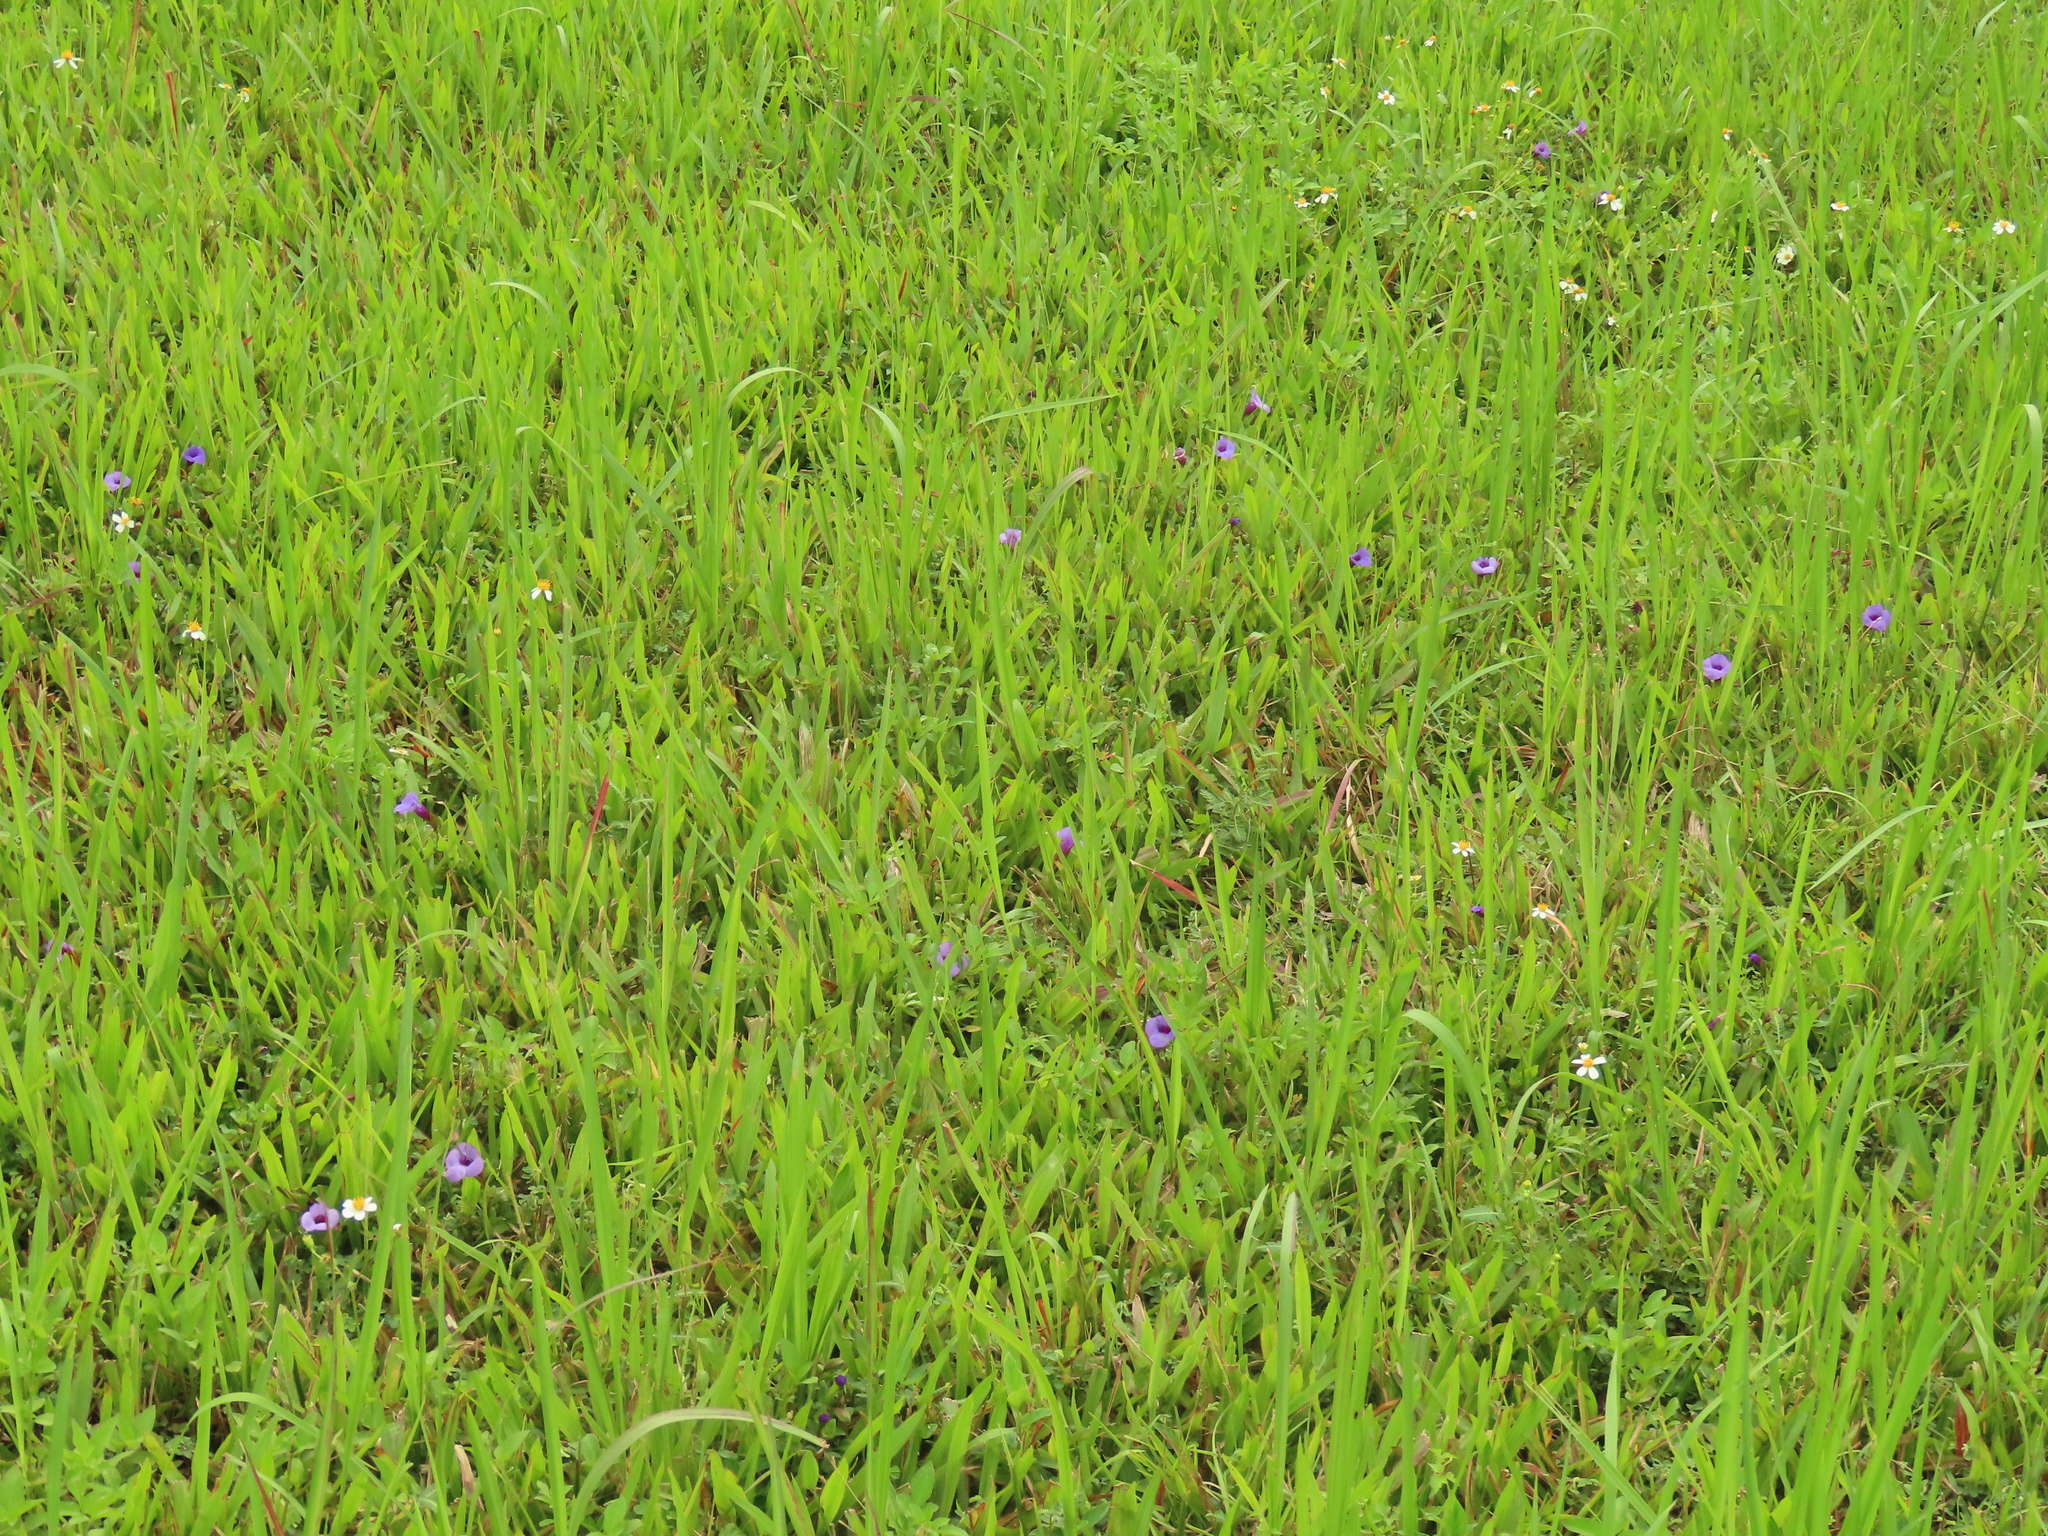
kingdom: Plantae
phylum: Tracheophyta
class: Magnoliopsida
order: Lamiales
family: Linderniaceae
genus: Torenia
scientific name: Torenia concolor
